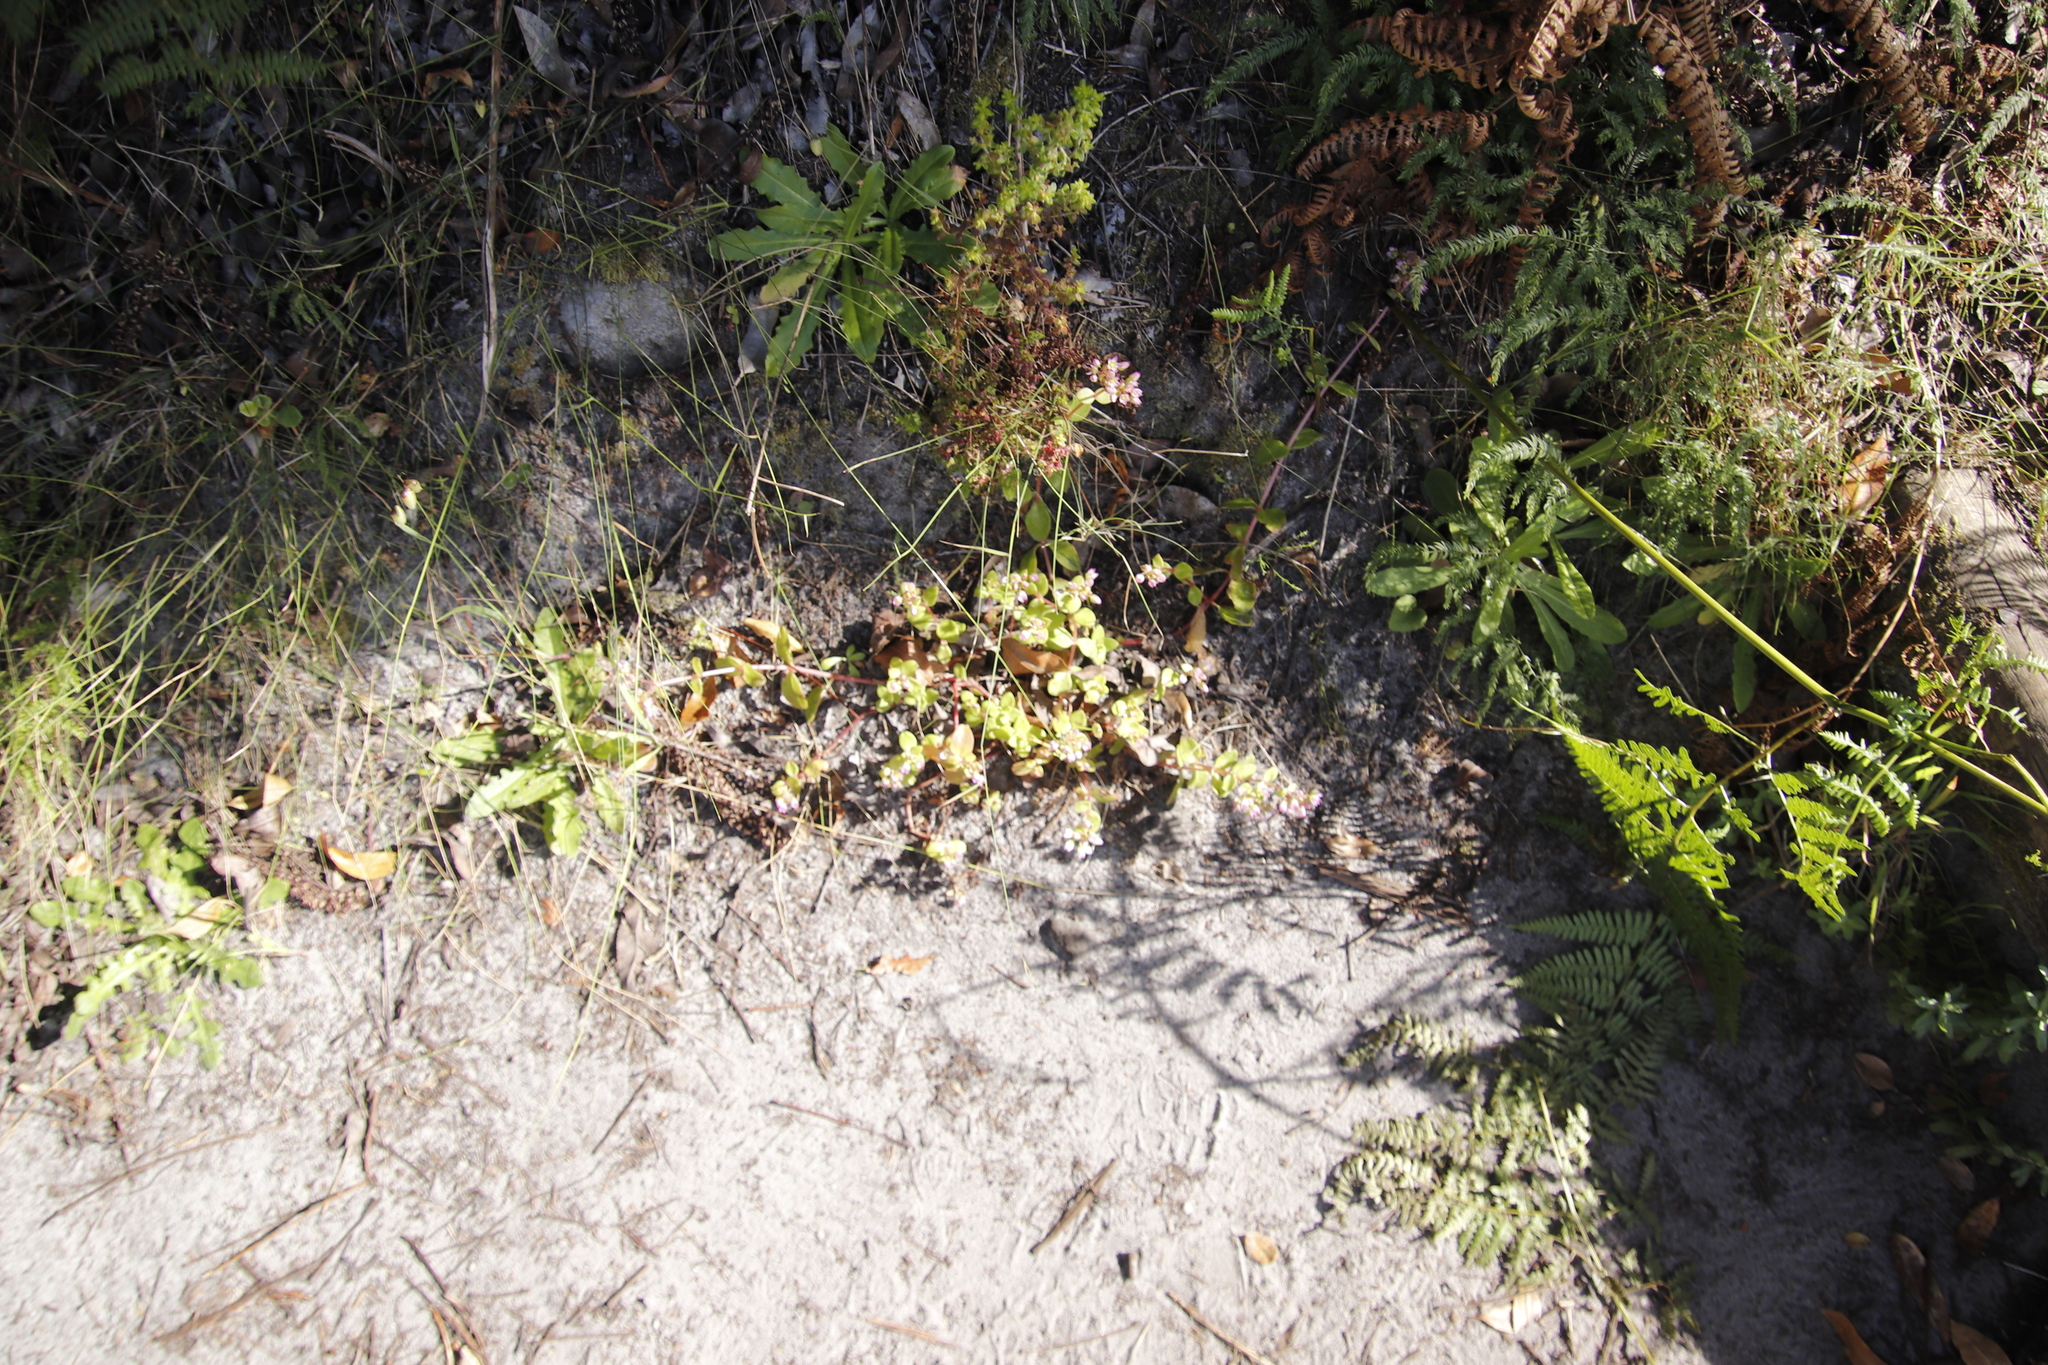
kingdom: Plantae
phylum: Tracheophyta
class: Magnoliopsida
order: Saxifragales
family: Crassulaceae
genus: Crassula
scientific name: Crassula pellucida
